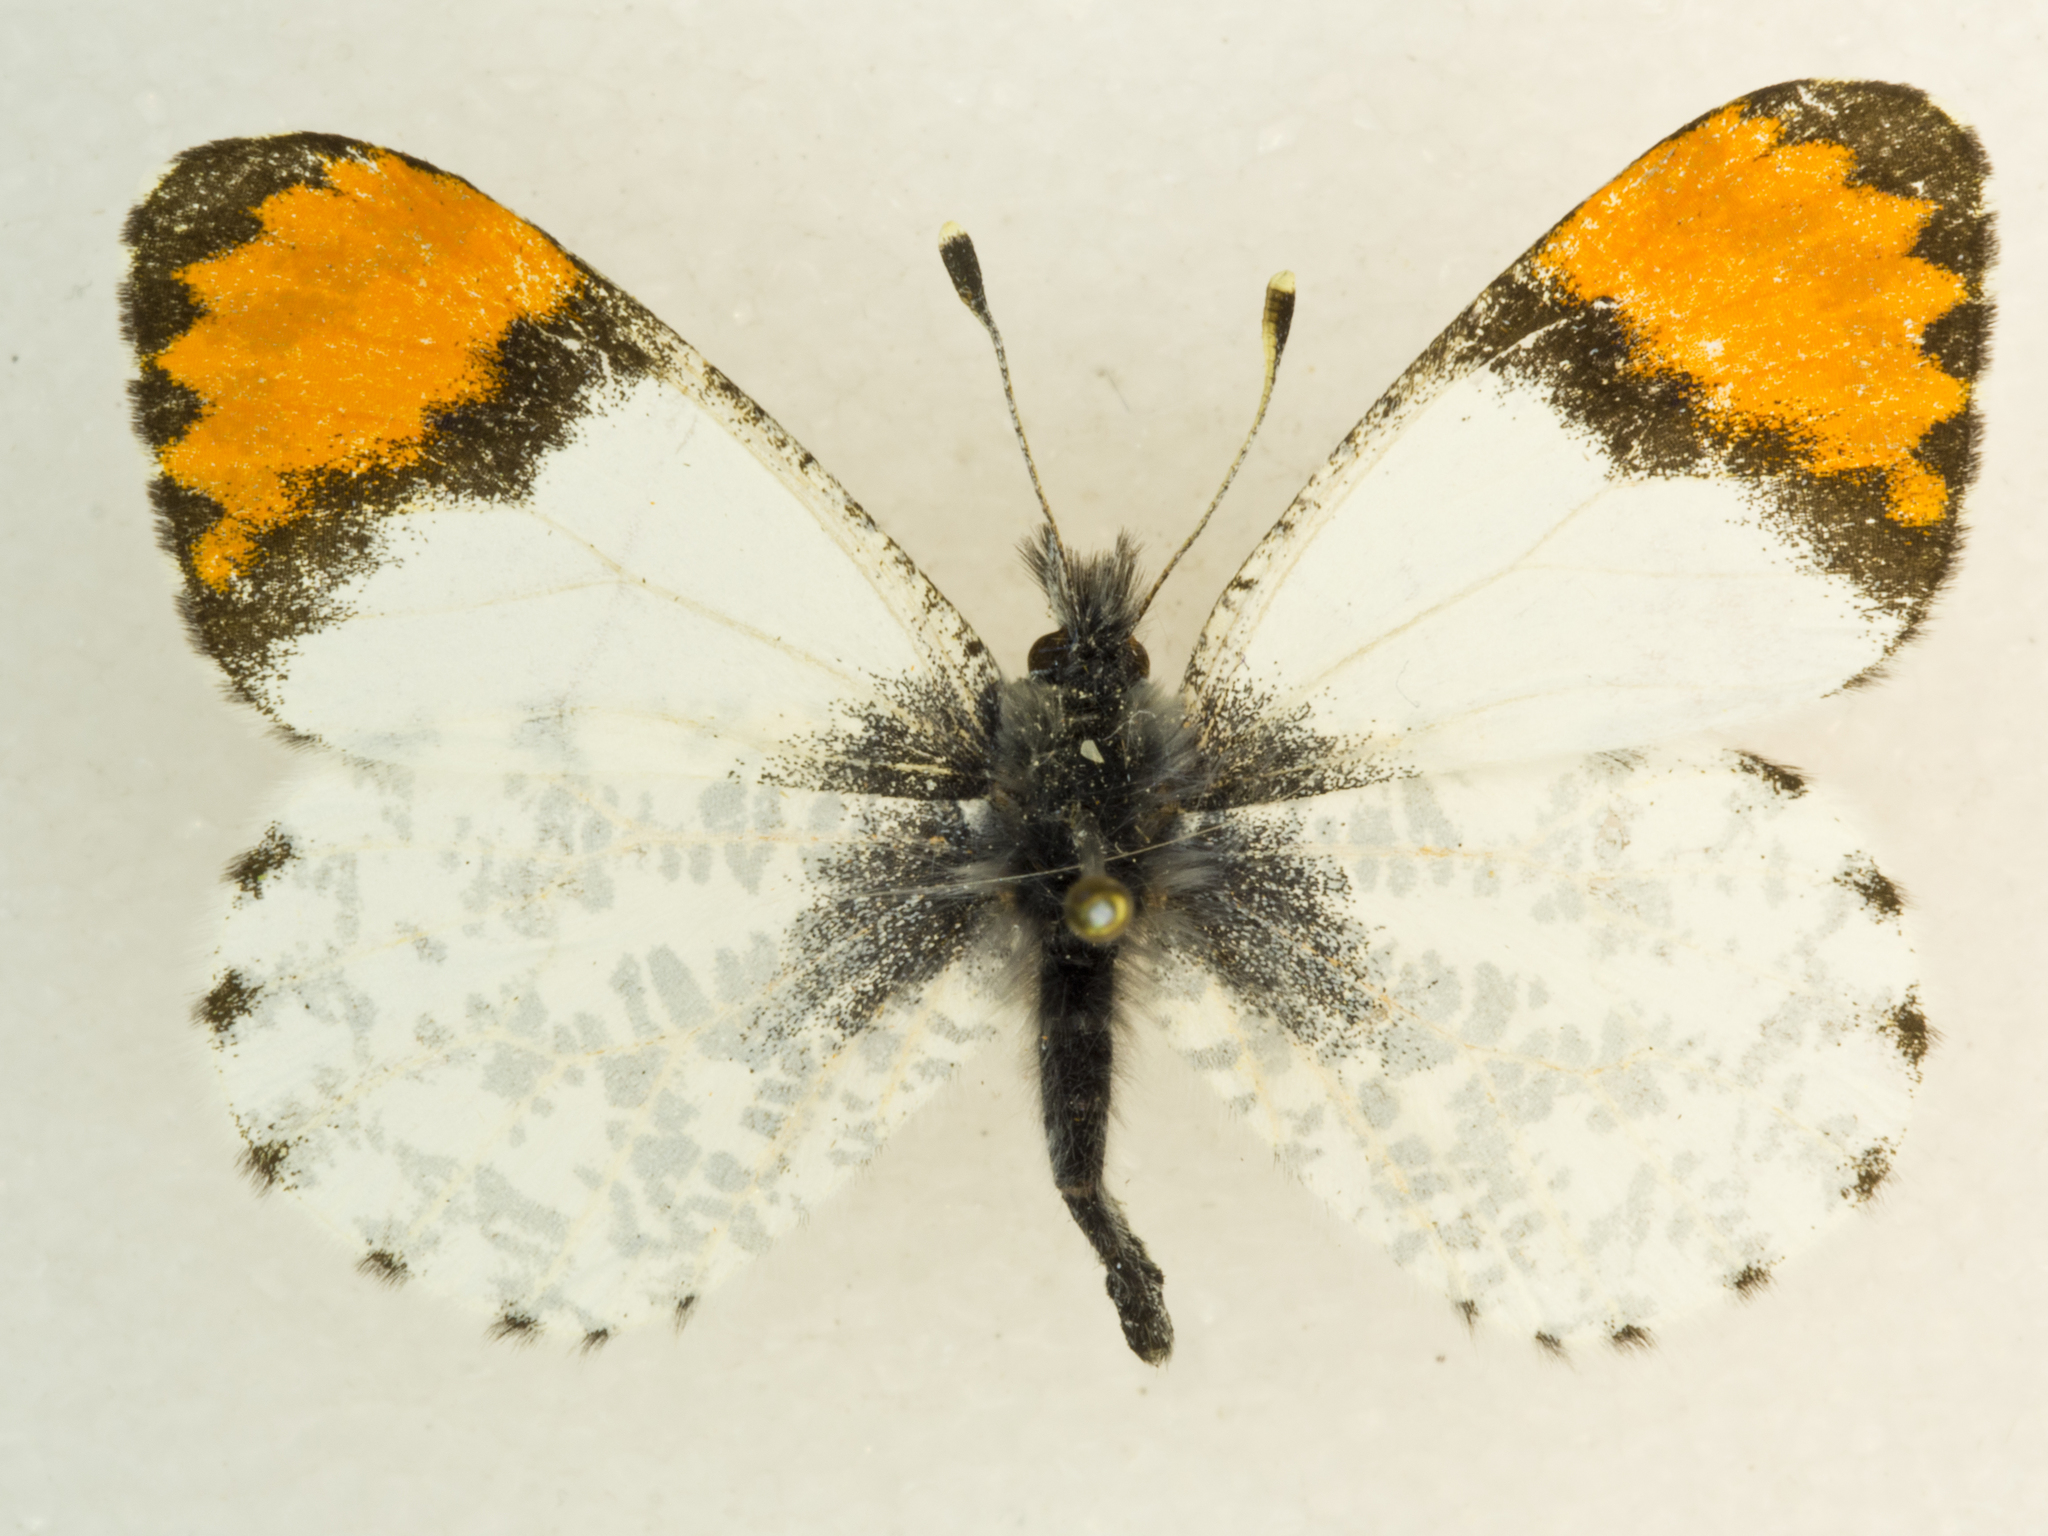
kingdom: Animalia
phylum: Arthropoda
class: Insecta
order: Lepidoptera
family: Pieridae
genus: Anthocharis
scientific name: Anthocharis thoosa
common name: Southwestern orangetip
